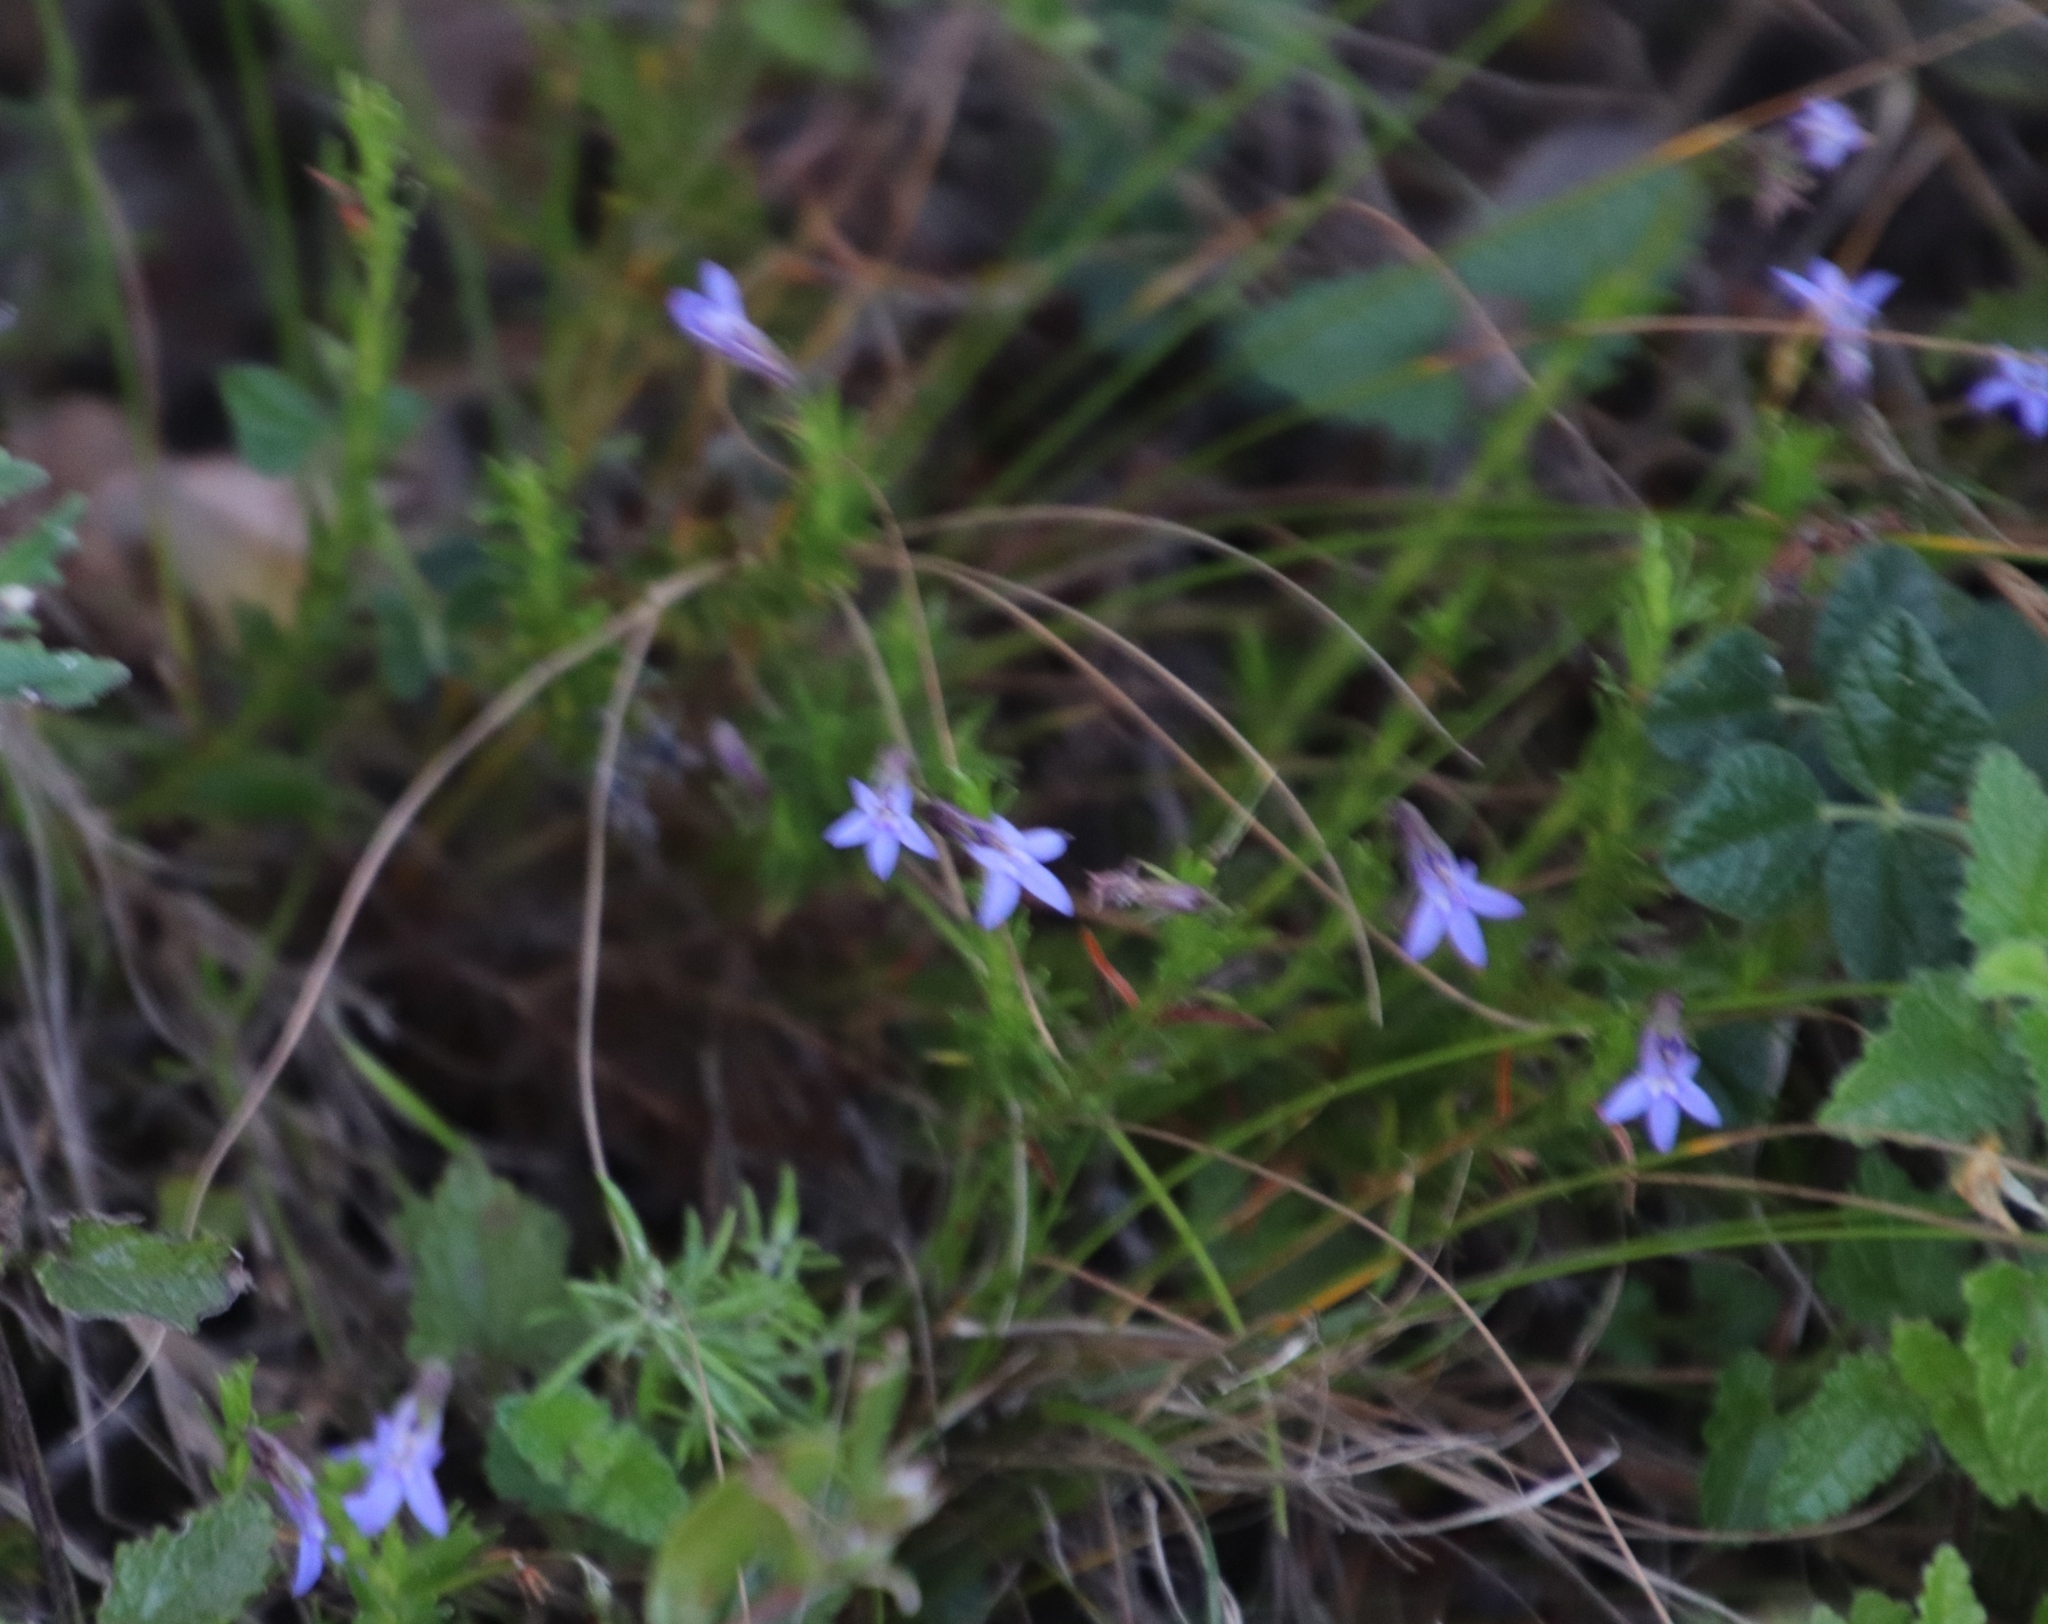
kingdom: Plantae
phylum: Tracheophyta
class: Magnoliopsida
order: Asterales
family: Campanulaceae
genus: Lobelia
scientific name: Lobelia pinifolia
